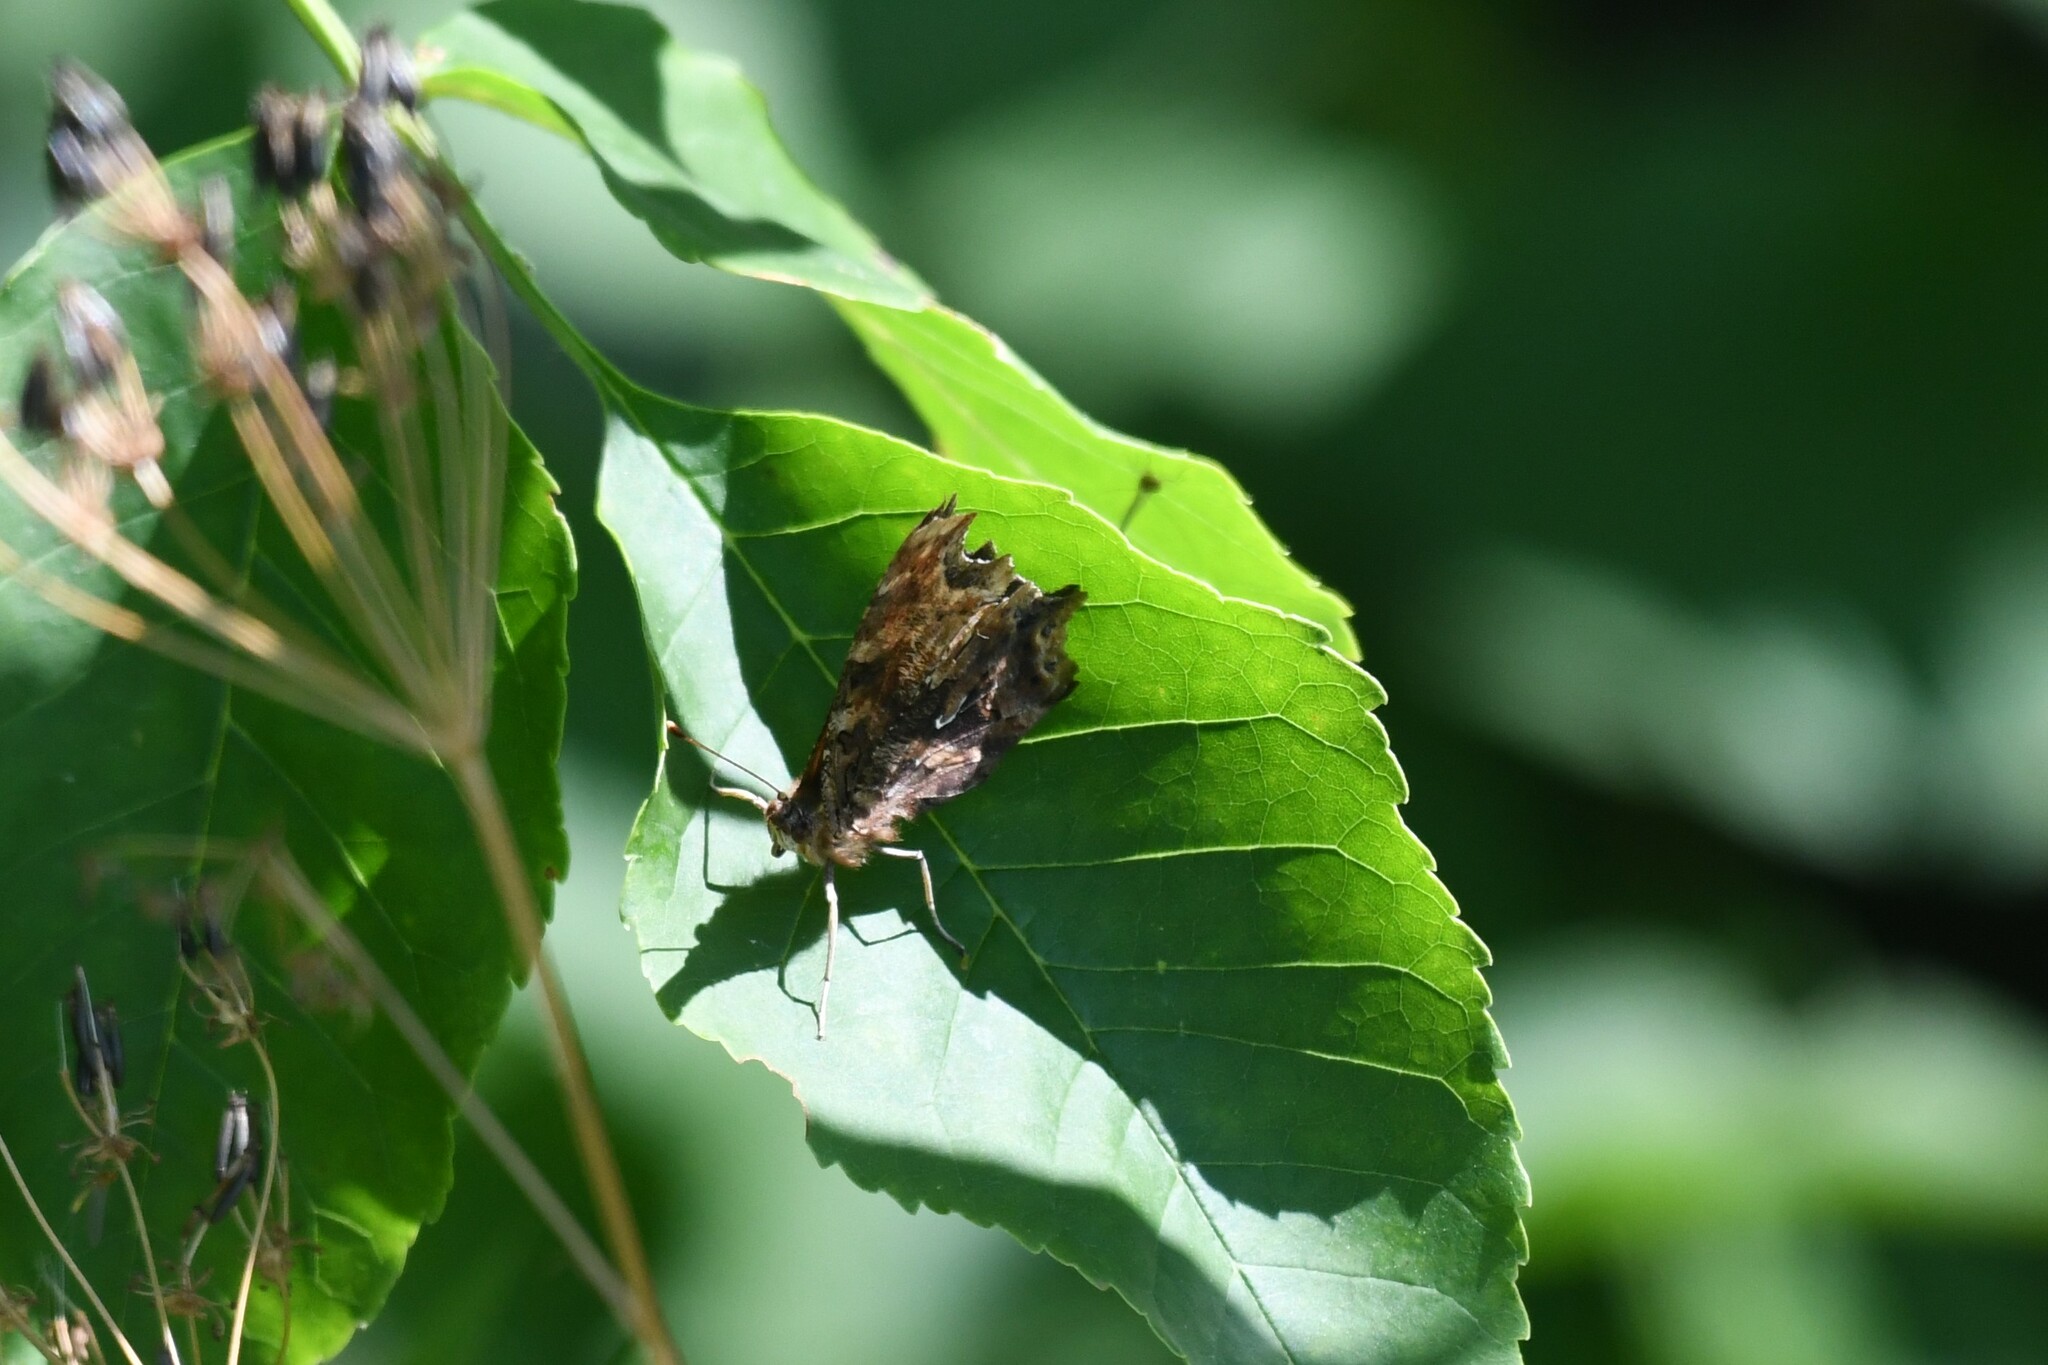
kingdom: Animalia
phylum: Arthropoda
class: Insecta
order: Lepidoptera
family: Nymphalidae
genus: Polygonia
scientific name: Polygonia comma
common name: Eastern comma
